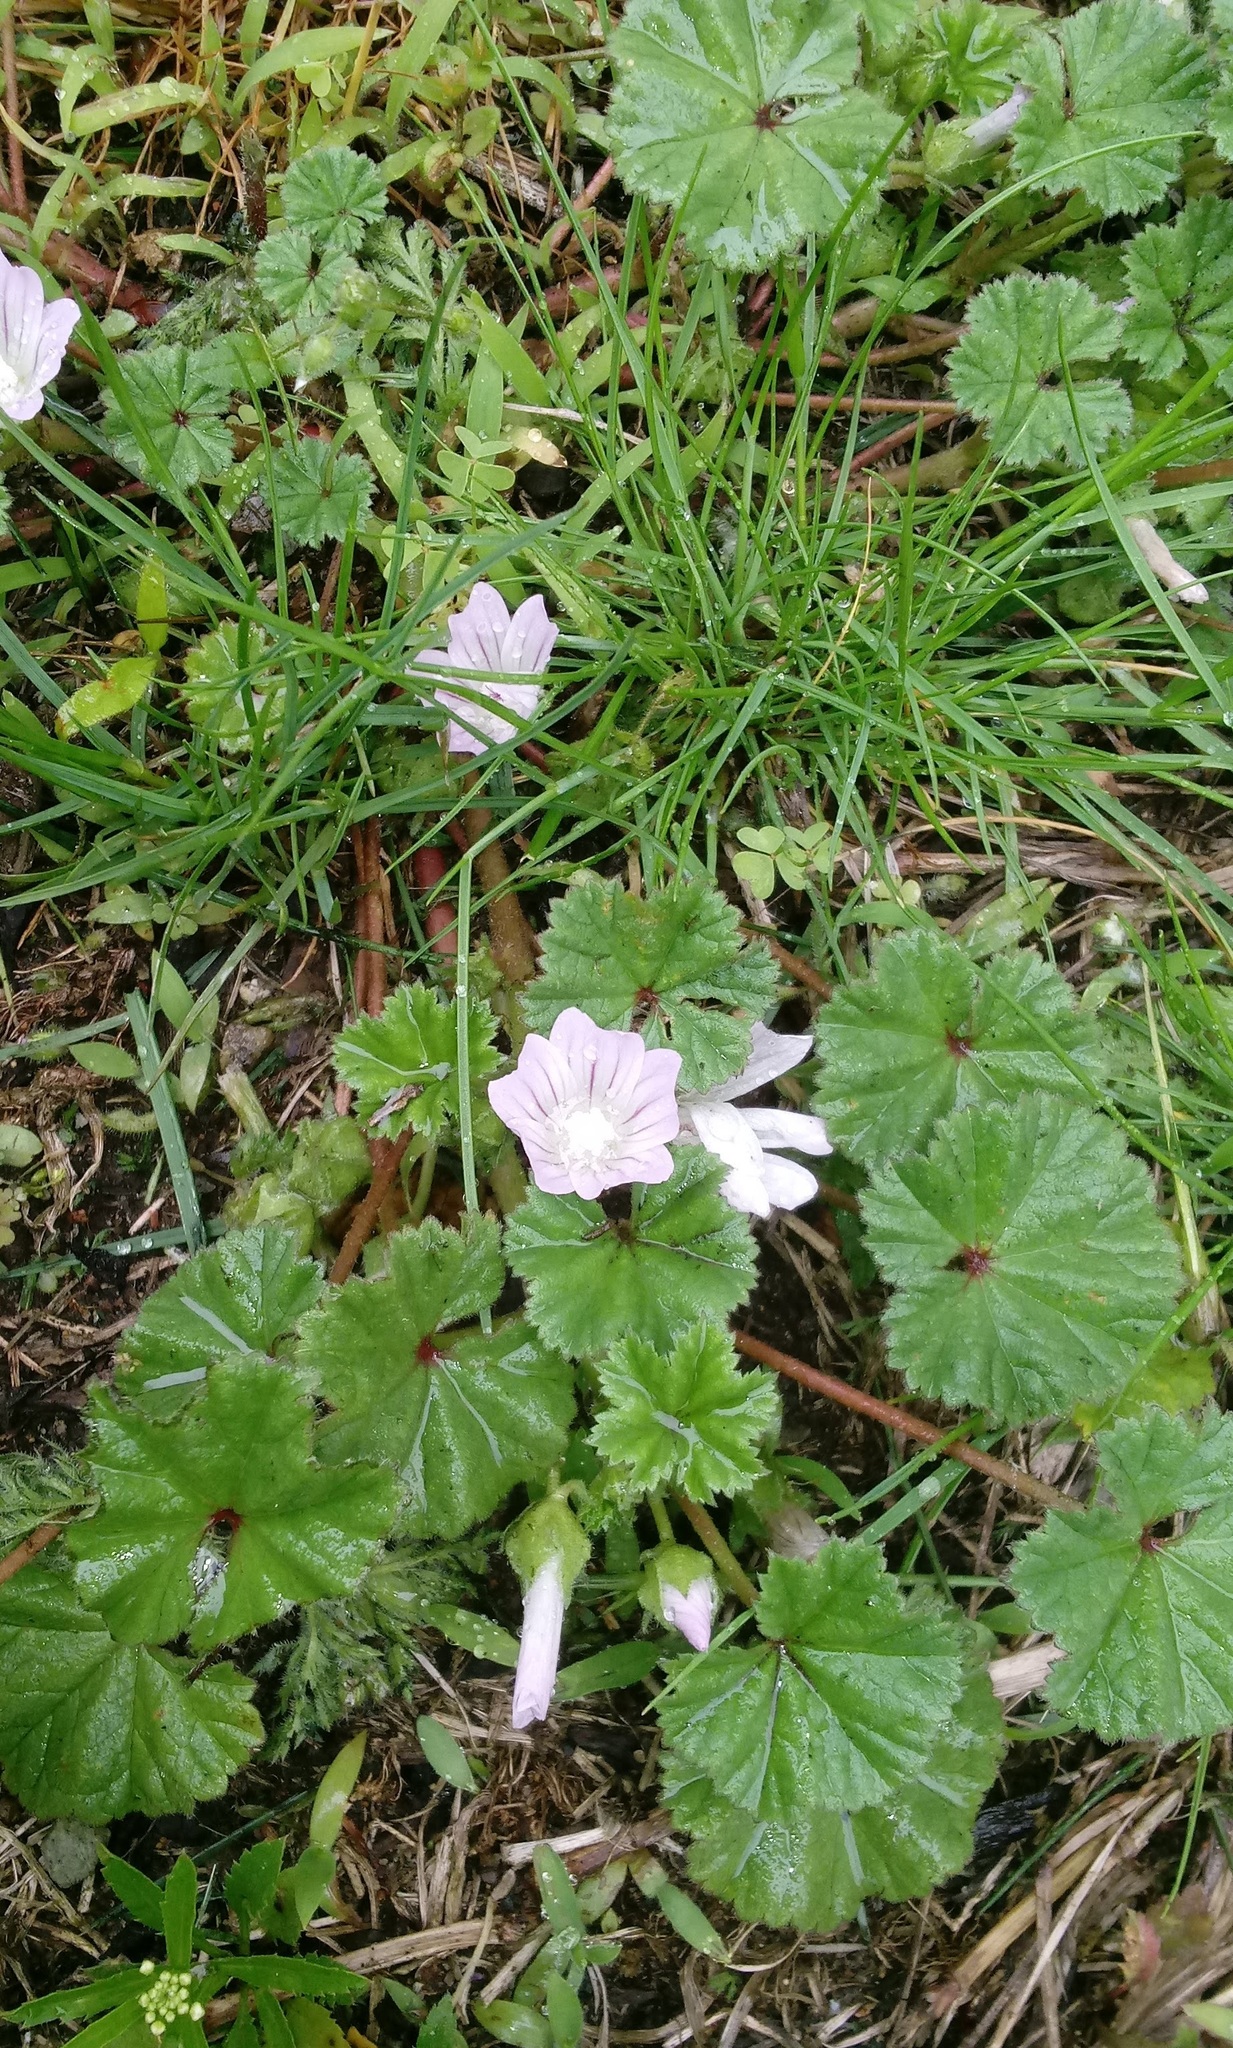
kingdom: Plantae
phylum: Tracheophyta
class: Magnoliopsida
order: Malvales
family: Malvaceae
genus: Malva
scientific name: Malva neglecta
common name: Common mallow
